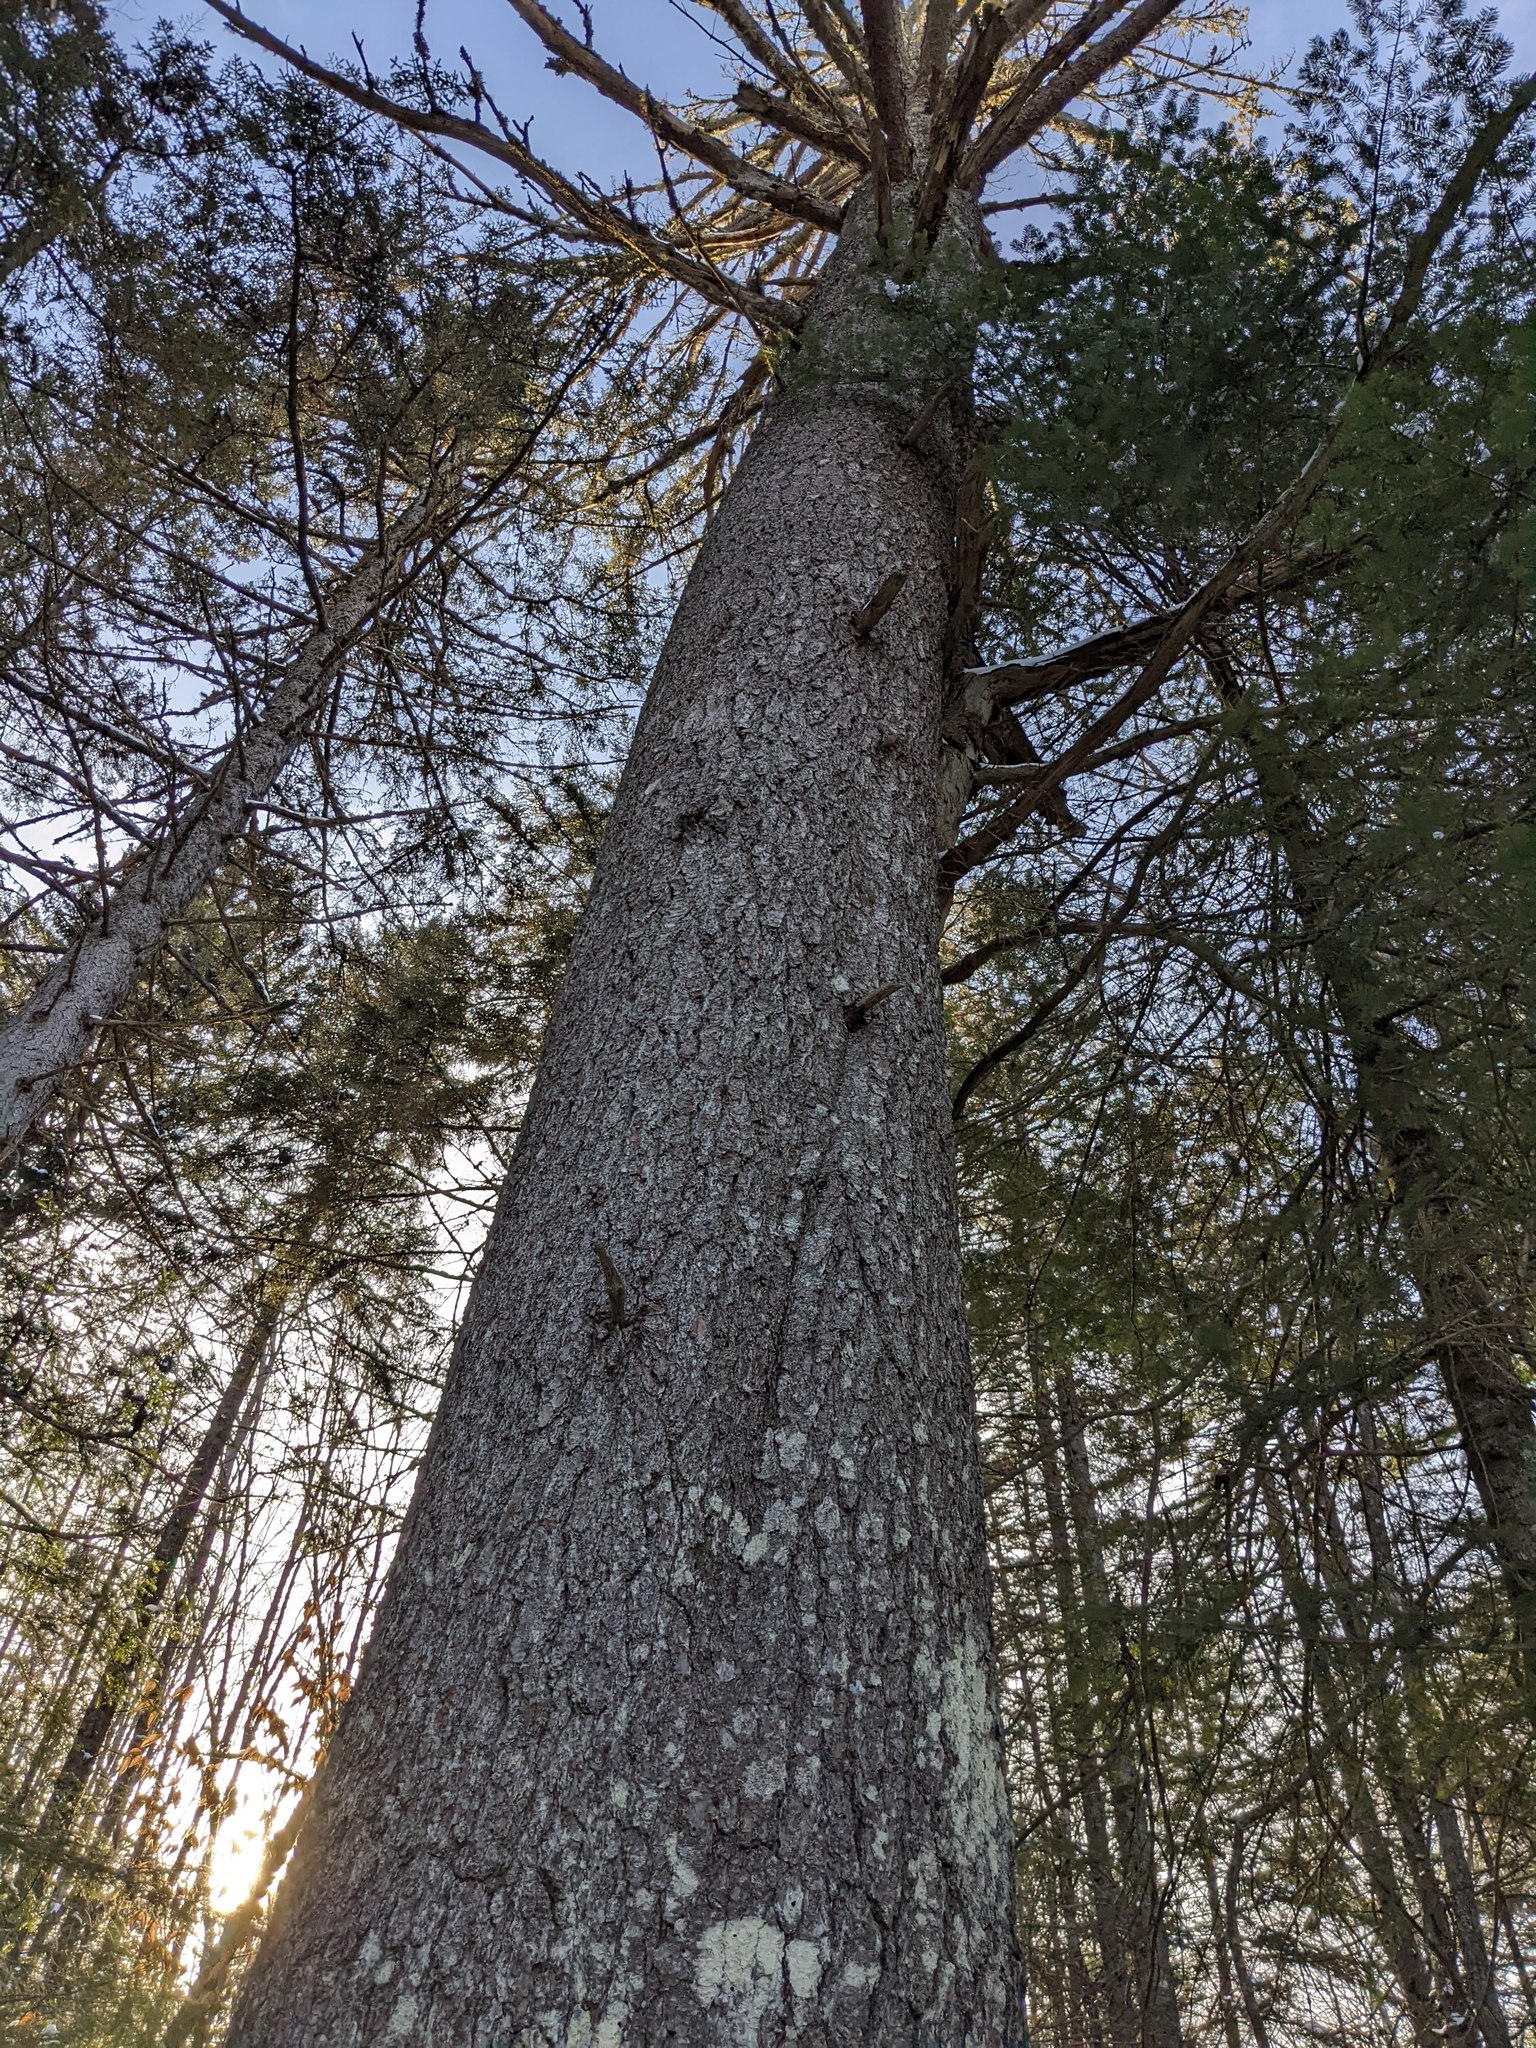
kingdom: Plantae
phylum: Tracheophyta
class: Pinopsida
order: Pinales
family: Pinaceae
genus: Pinus
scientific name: Pinus strobus
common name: Weymouth pine
